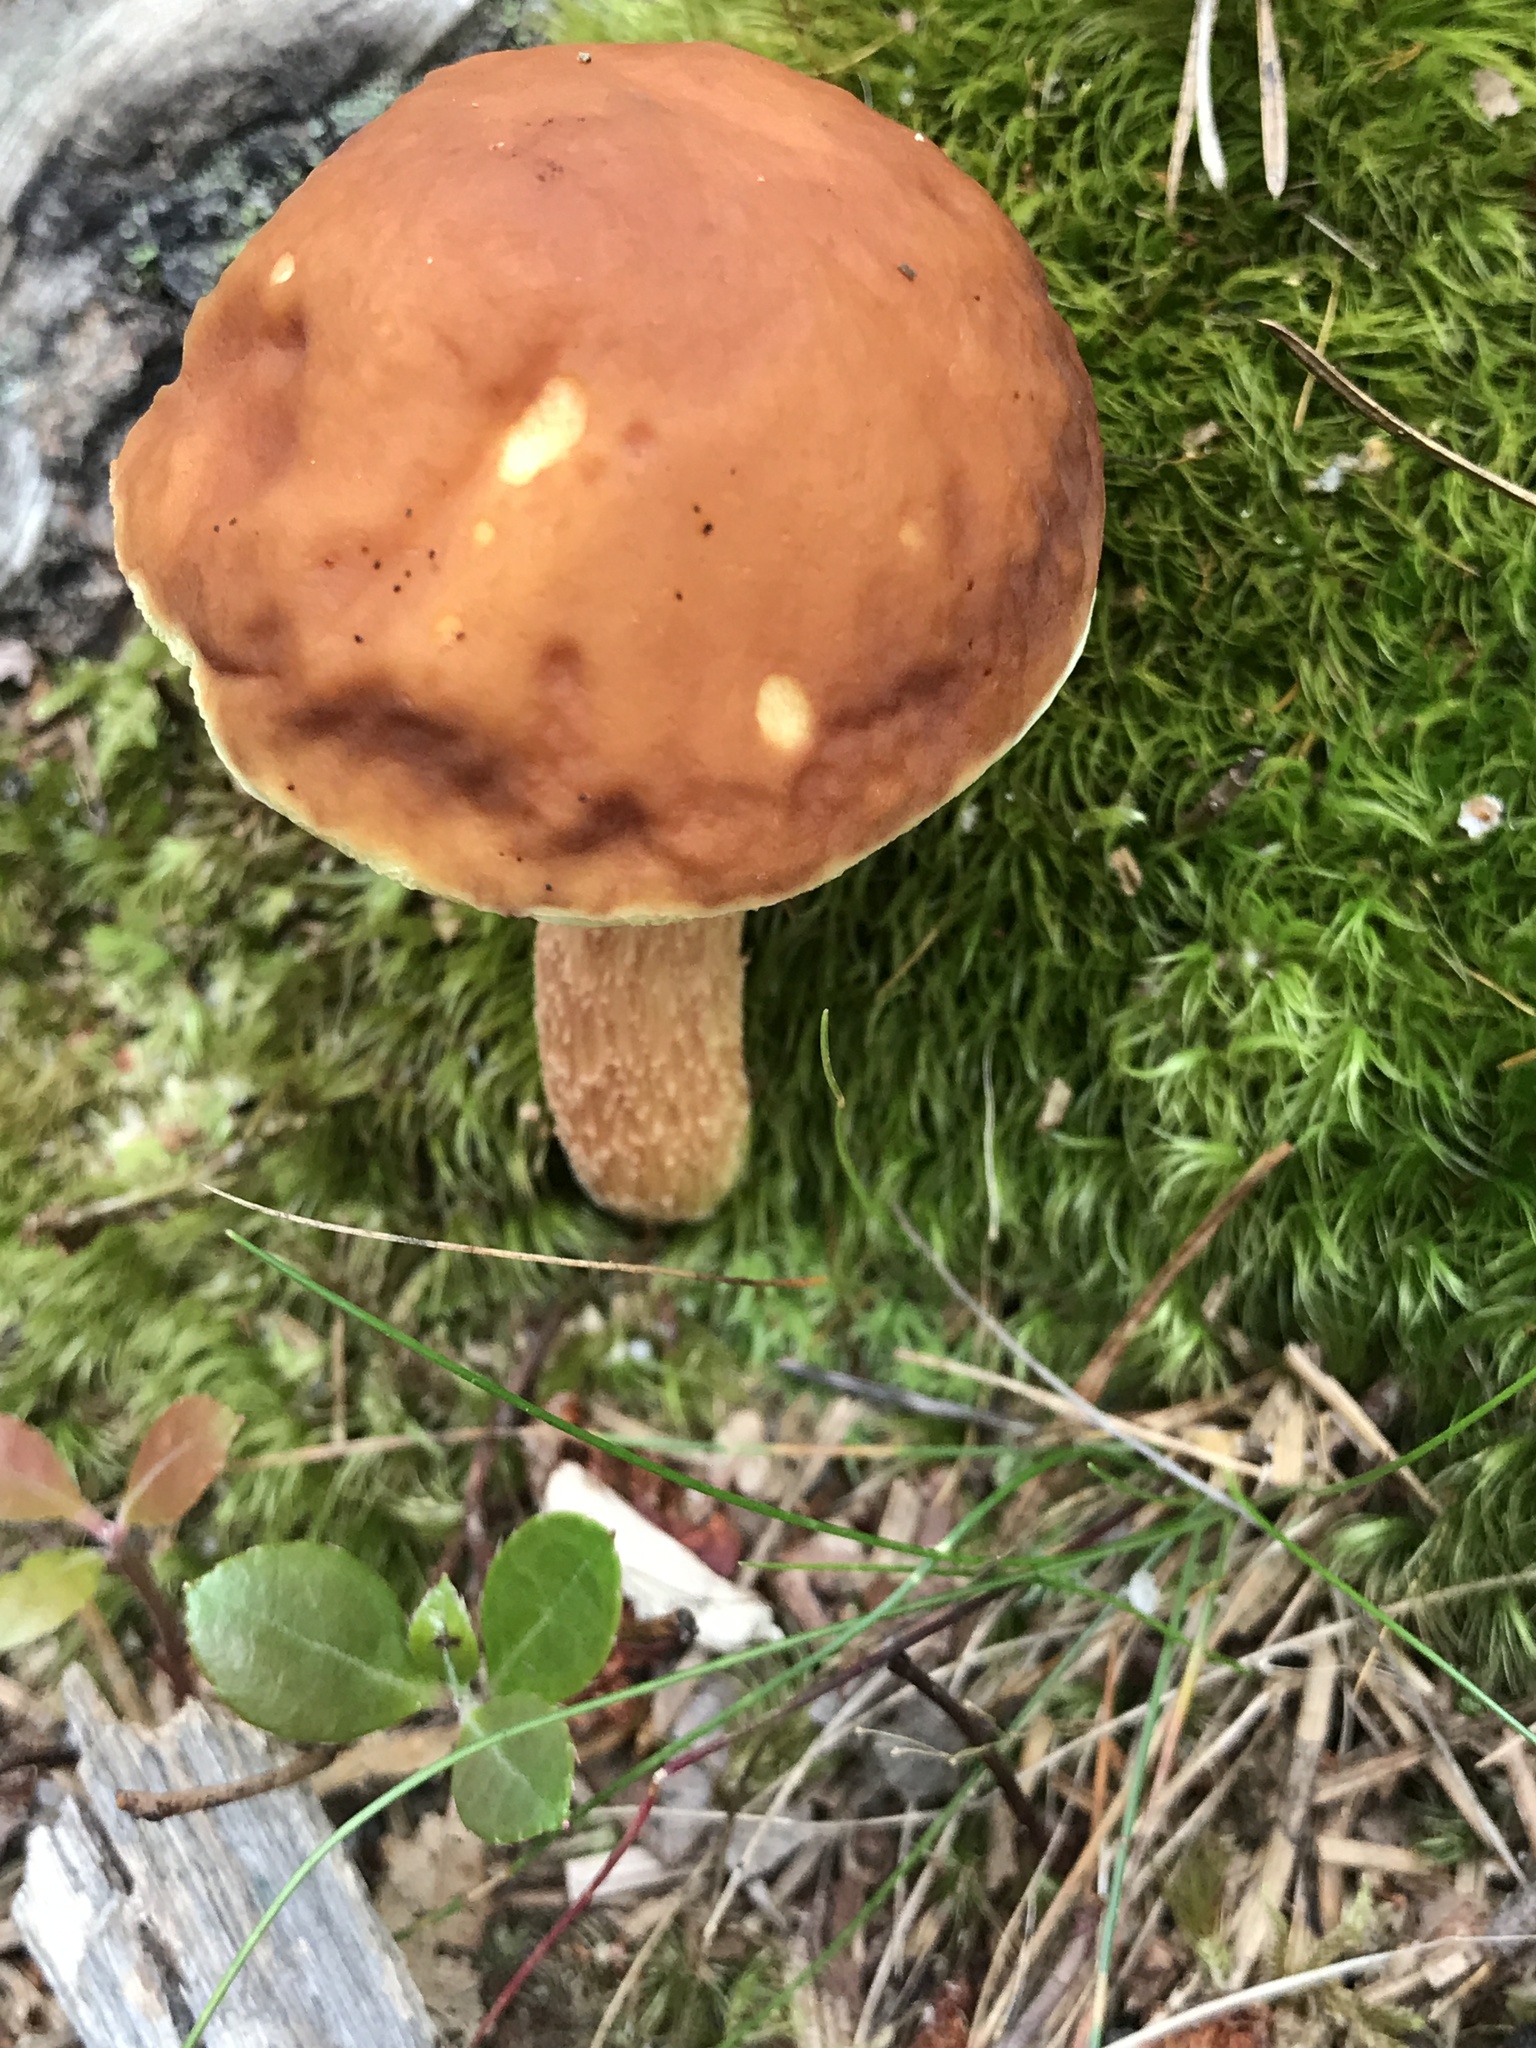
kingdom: Fungi
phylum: Basidiomycota
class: Agaricomycetes
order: Boletales
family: Boletaceae
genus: Hemileccinum
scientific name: Hemileccinum rubropunctum
